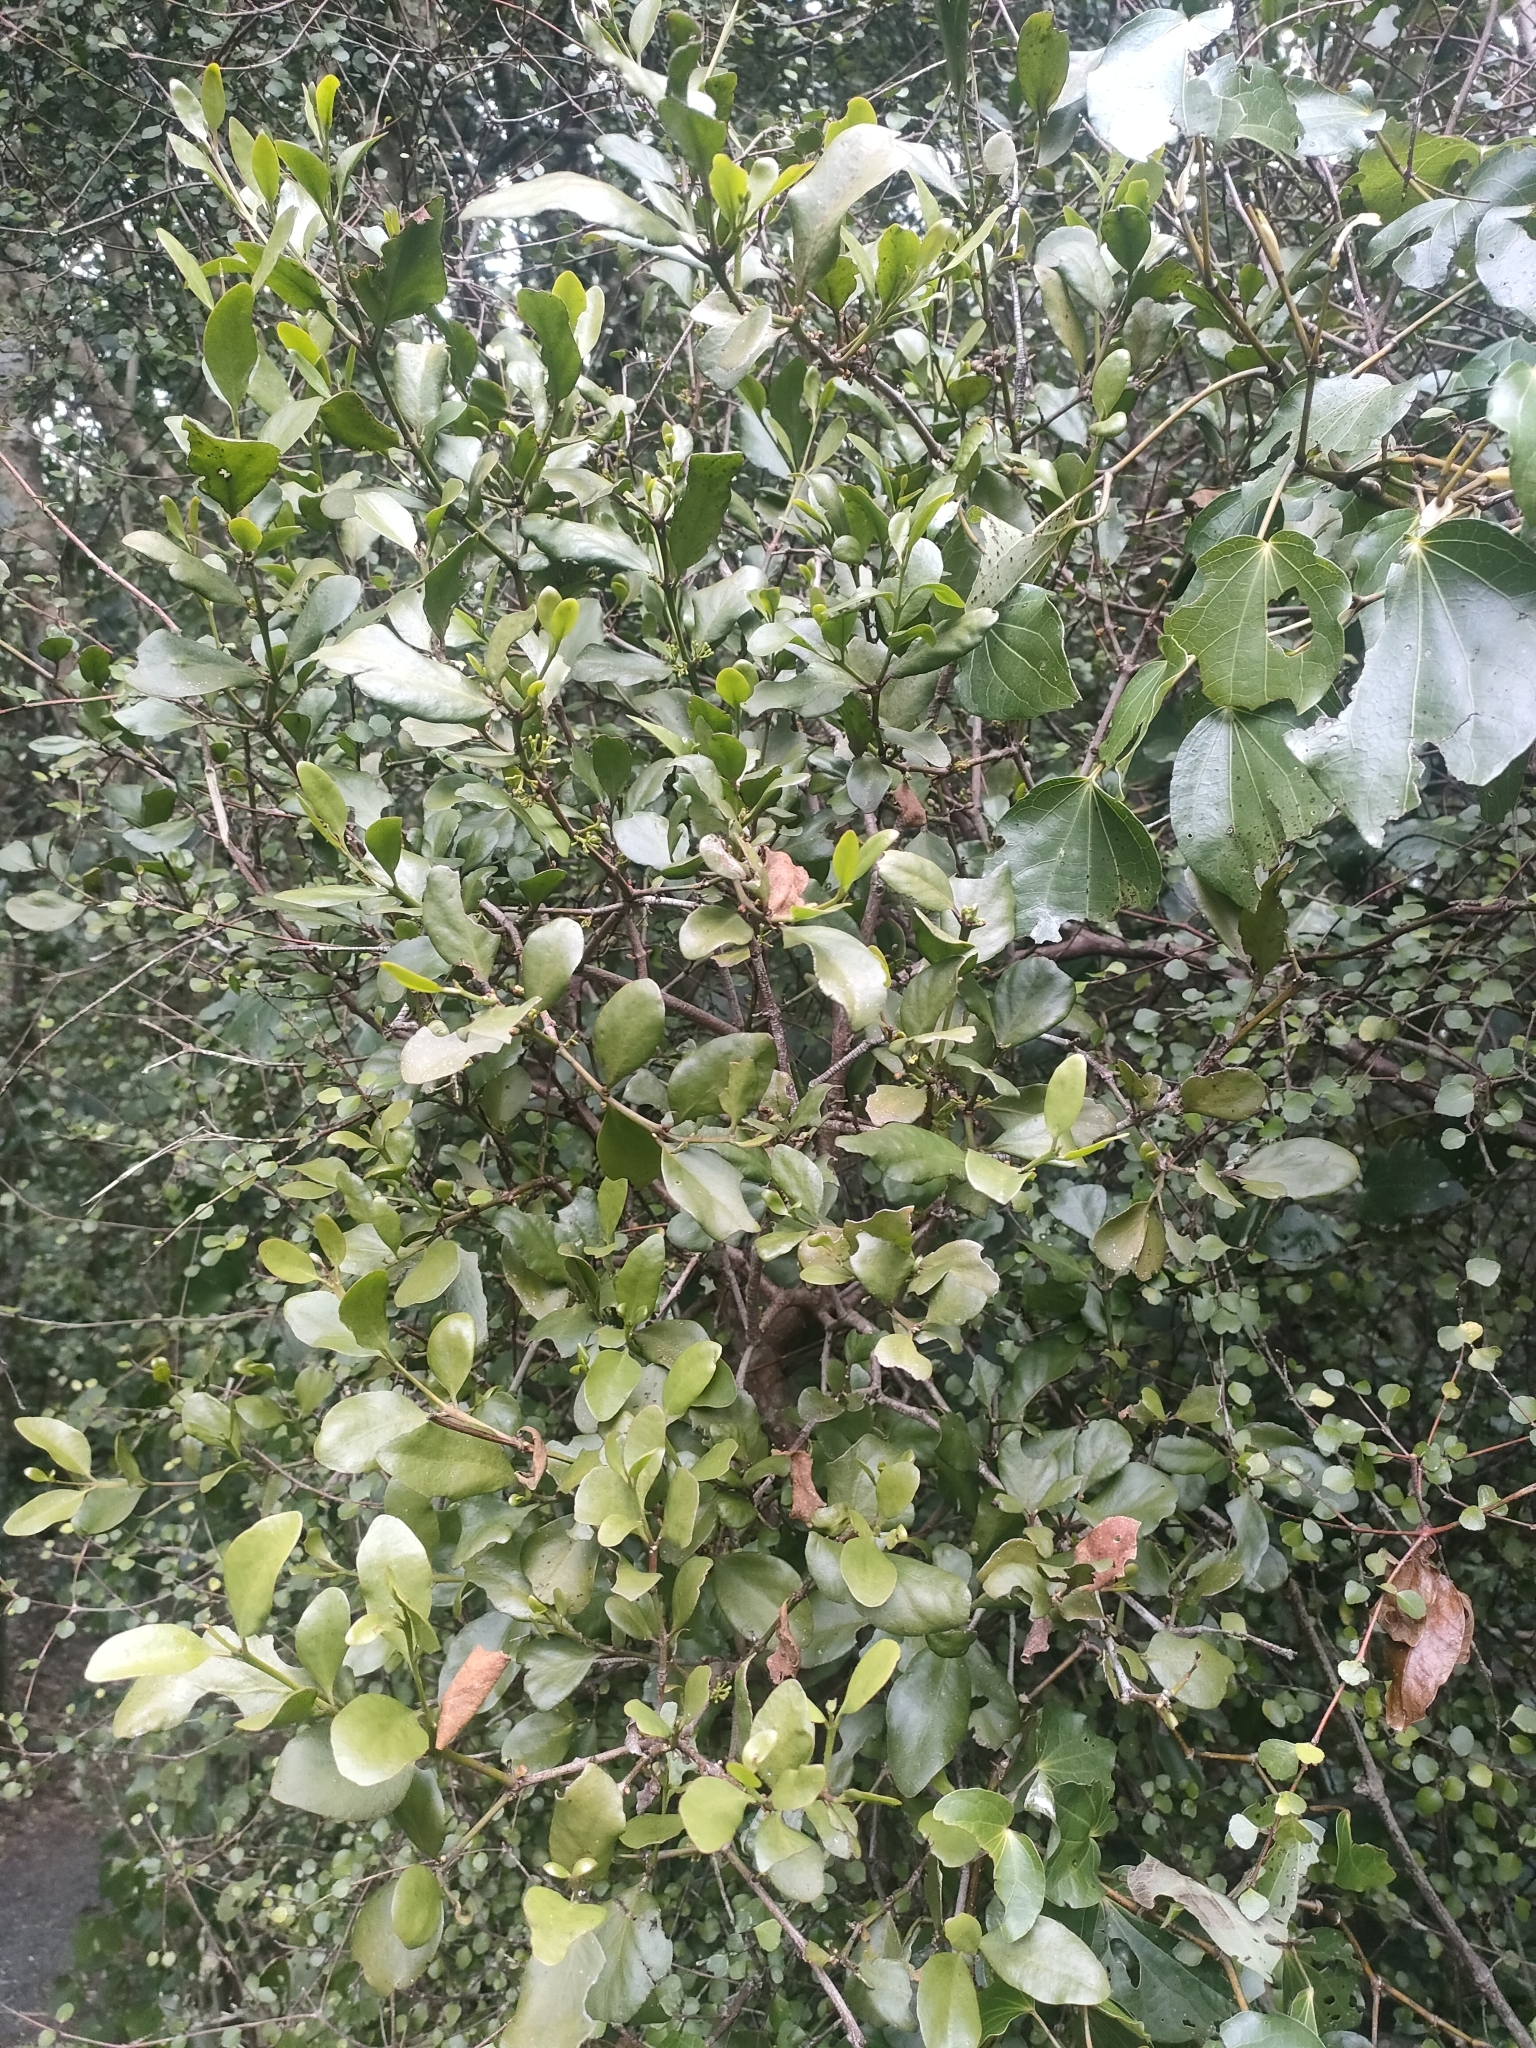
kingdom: Plantae
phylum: Tracheophyta
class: Magnoliopsida
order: Santalales
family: Loranthaceae
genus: Ileostylus
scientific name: Ileostylus micranthus
